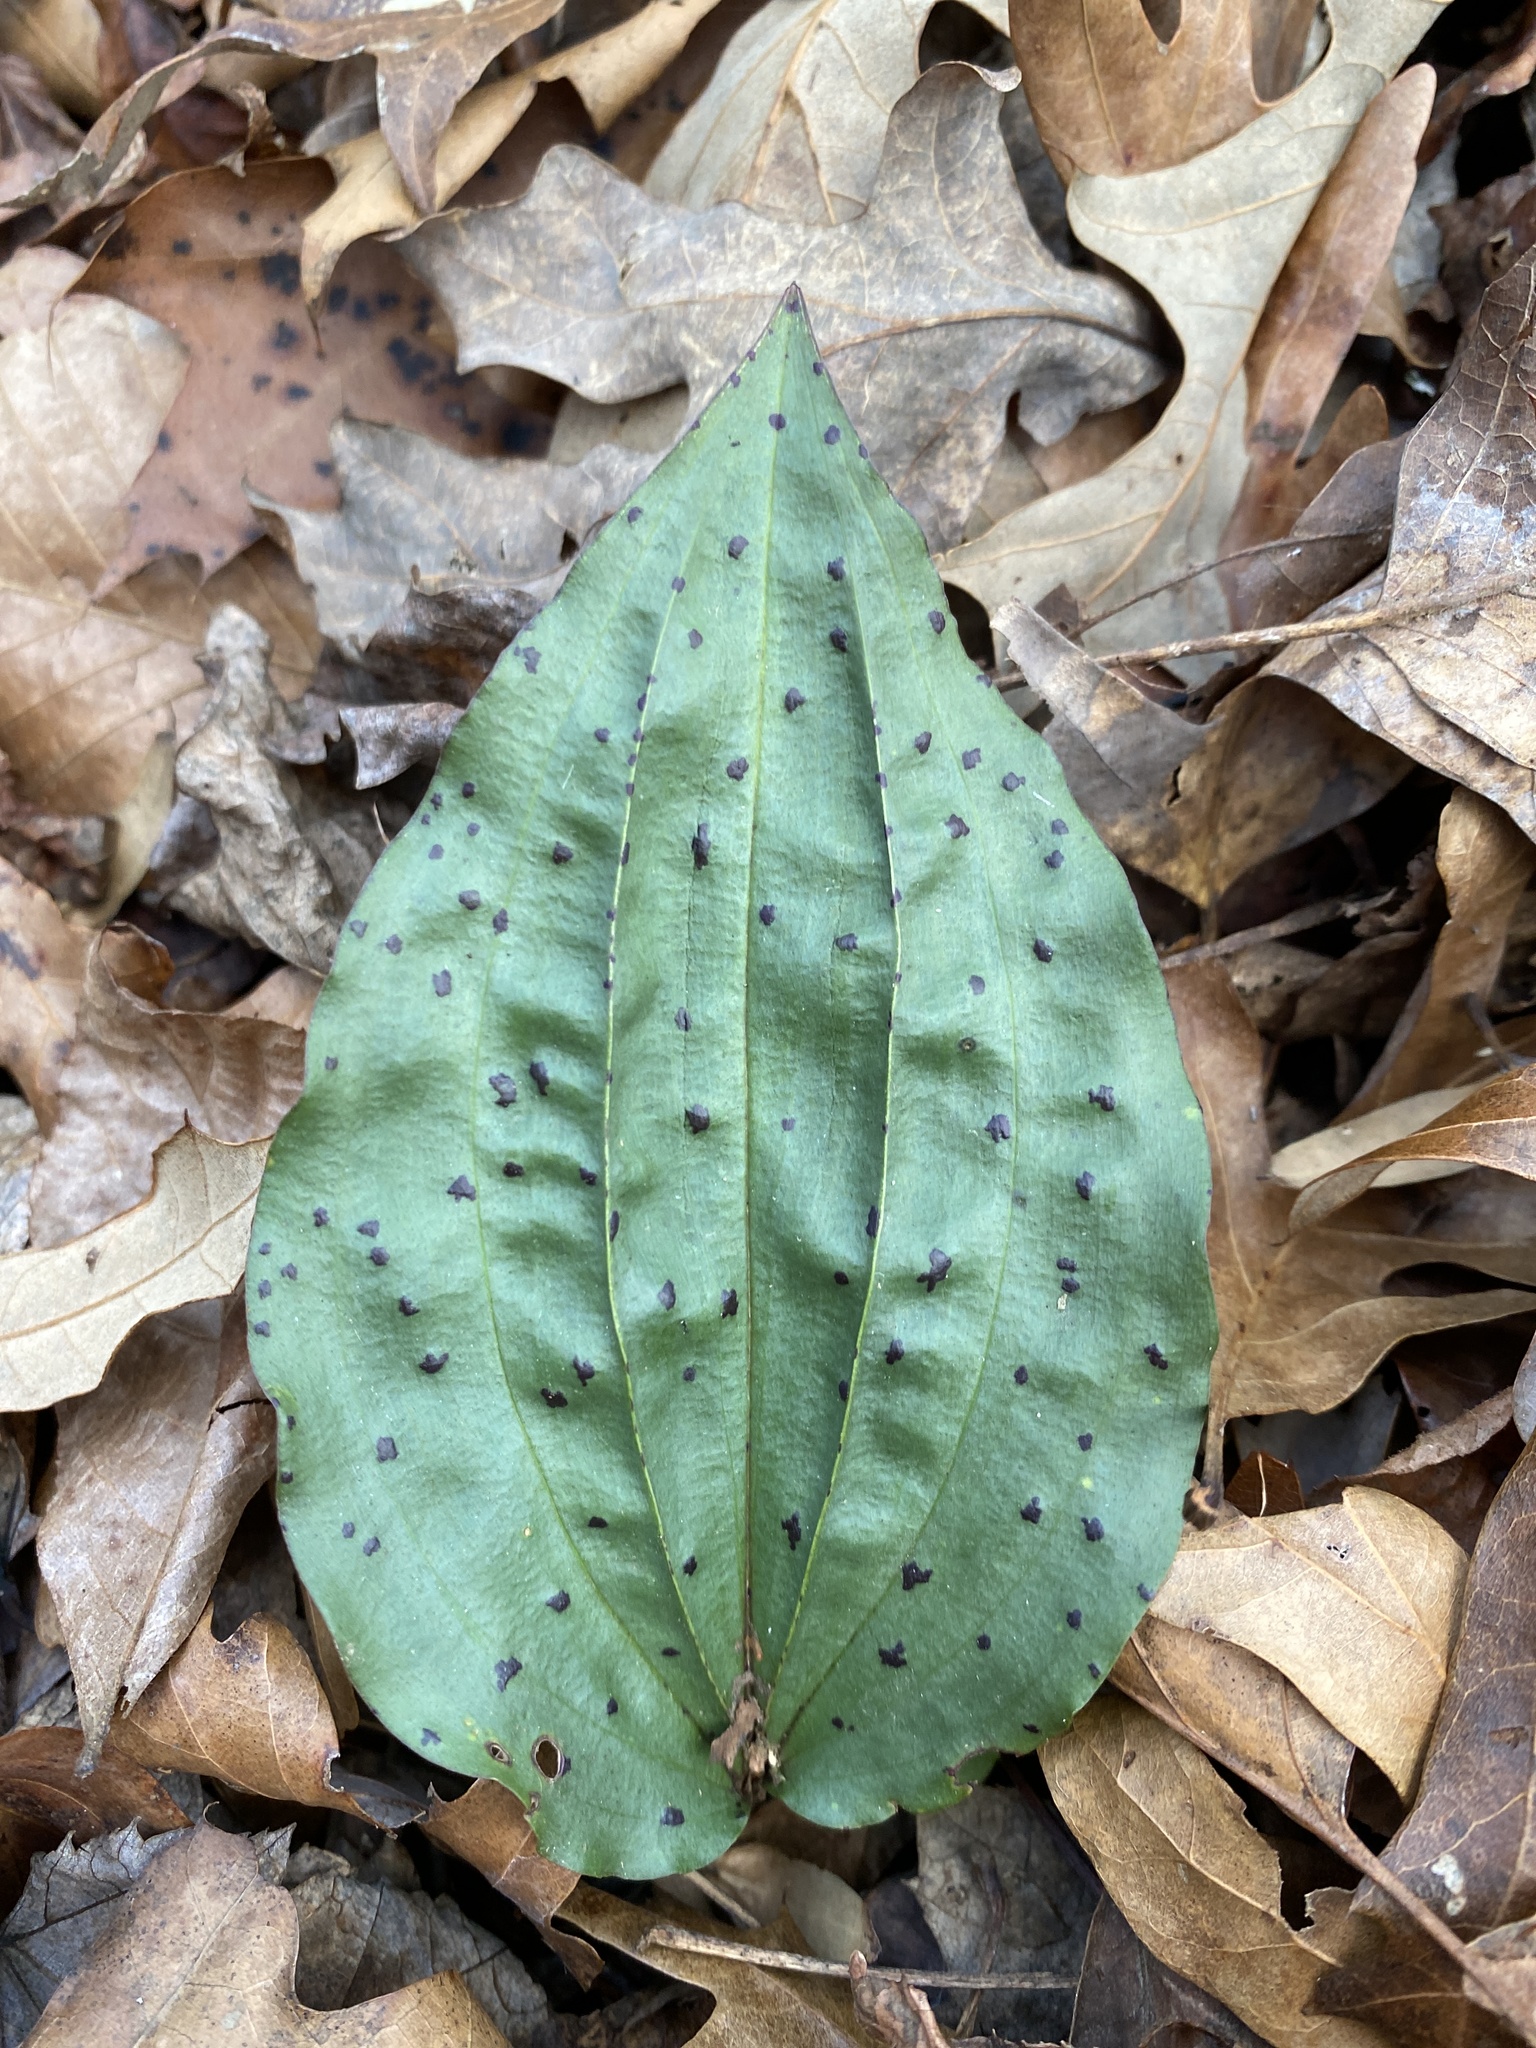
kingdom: Plantae
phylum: Tracheophyta
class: Liliopsida
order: Asparagales
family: Orchidaceae
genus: Tipularia
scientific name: Tipularia discolor
